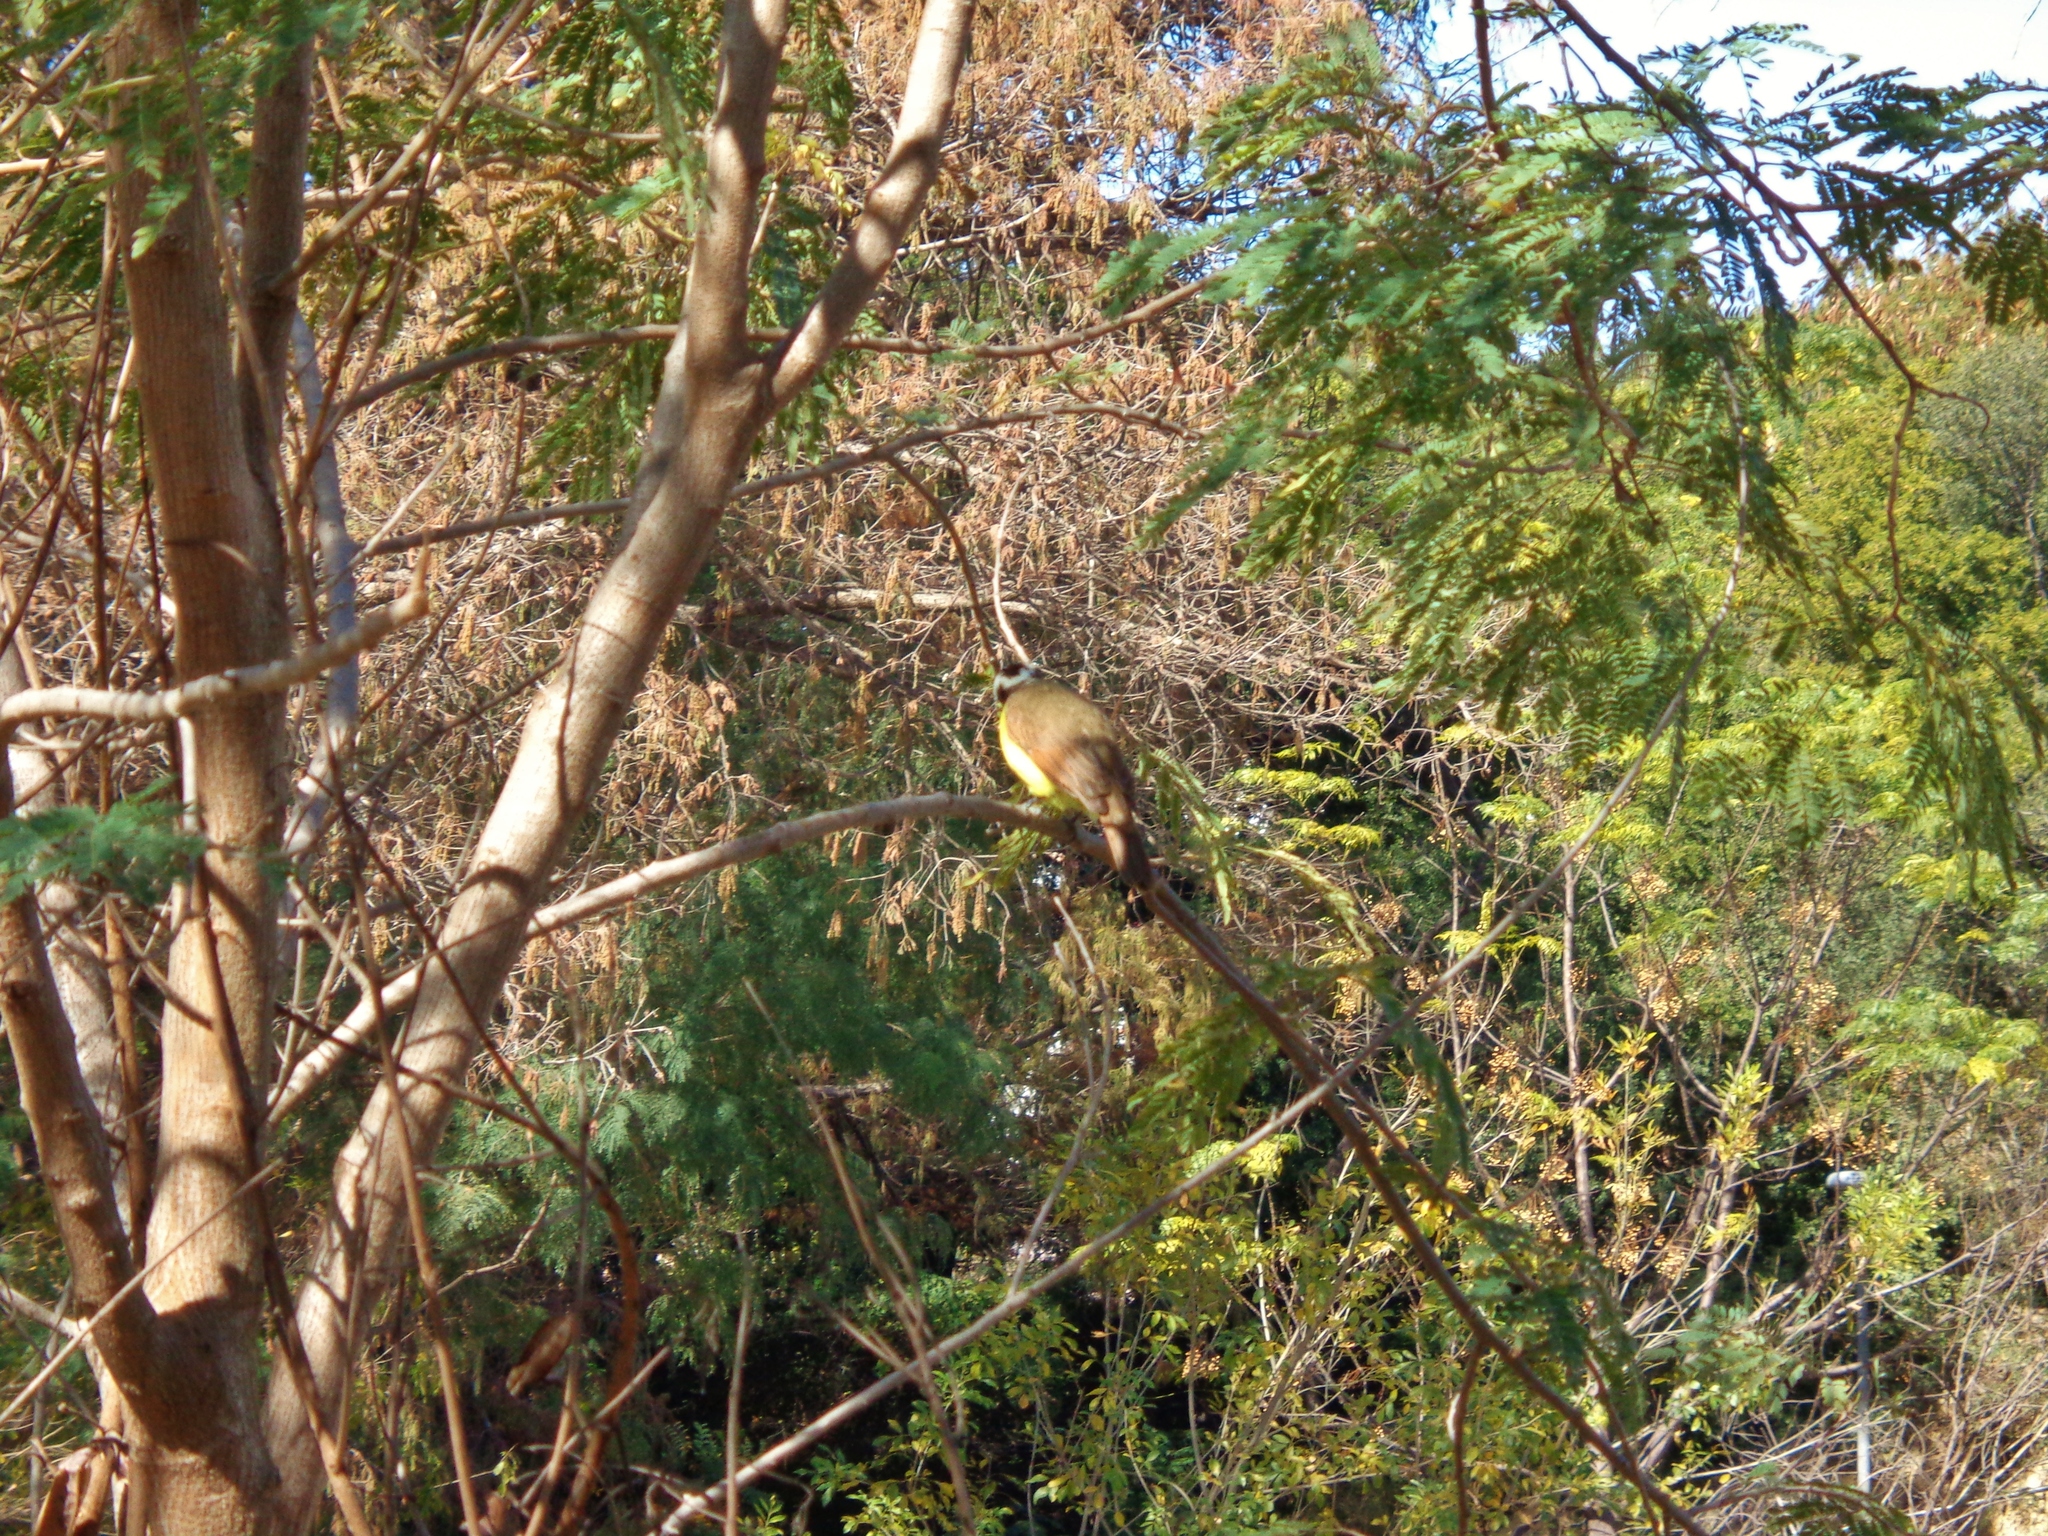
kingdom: Animalia
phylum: Chordata
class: Aves
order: Passeriformes
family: Tyrannidae
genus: Pitangus
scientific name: Pitangus sulphuratus
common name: Great kiskadee
